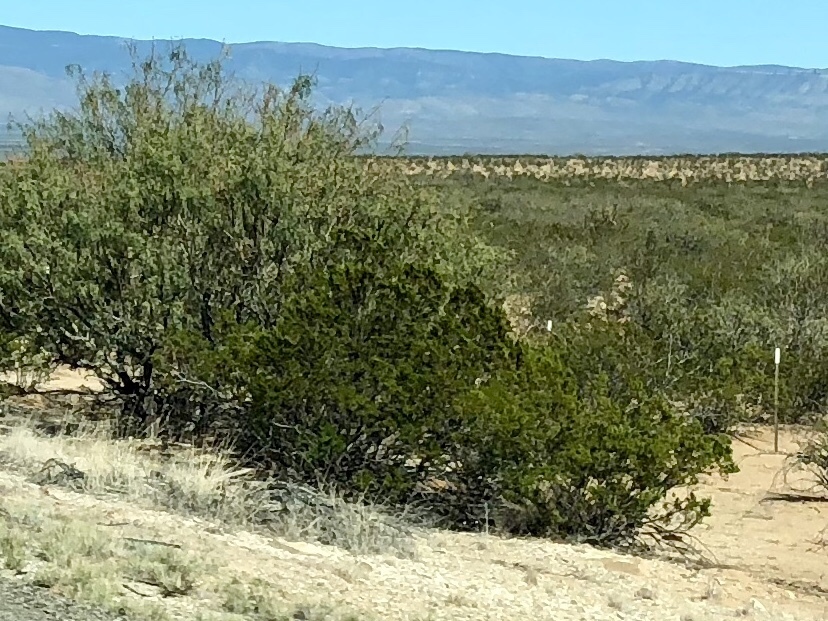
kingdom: Plantae
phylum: Tracheophyta
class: Magnoliopsida
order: Zygophyllales
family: Zygophyllaceae
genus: Larrea
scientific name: Larrea tridentata
